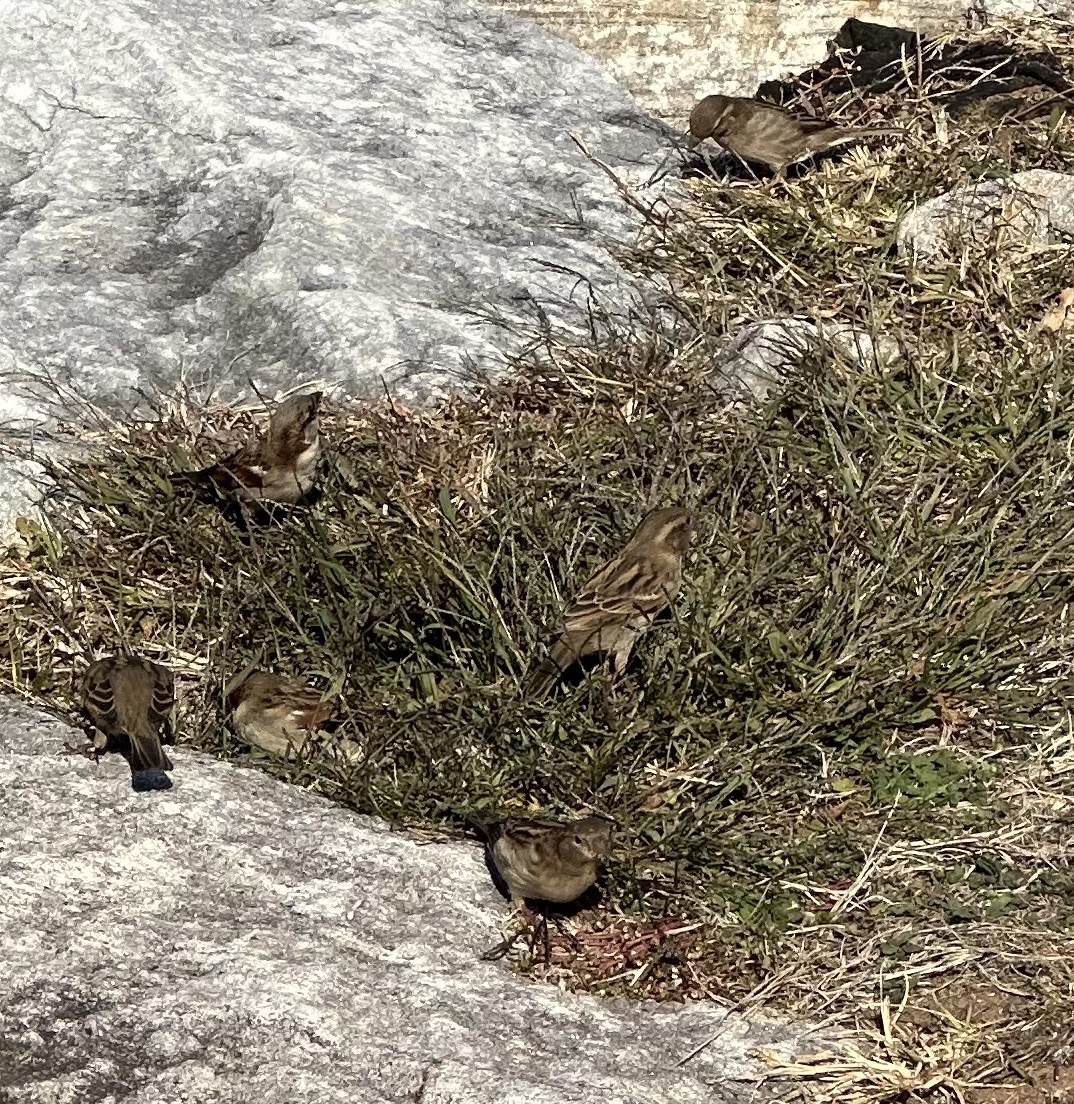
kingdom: Animalia
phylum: Chordata
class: Aves
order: Passeriformes
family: Passeridae
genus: Passer
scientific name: Passer domesticus
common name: House sparrow
